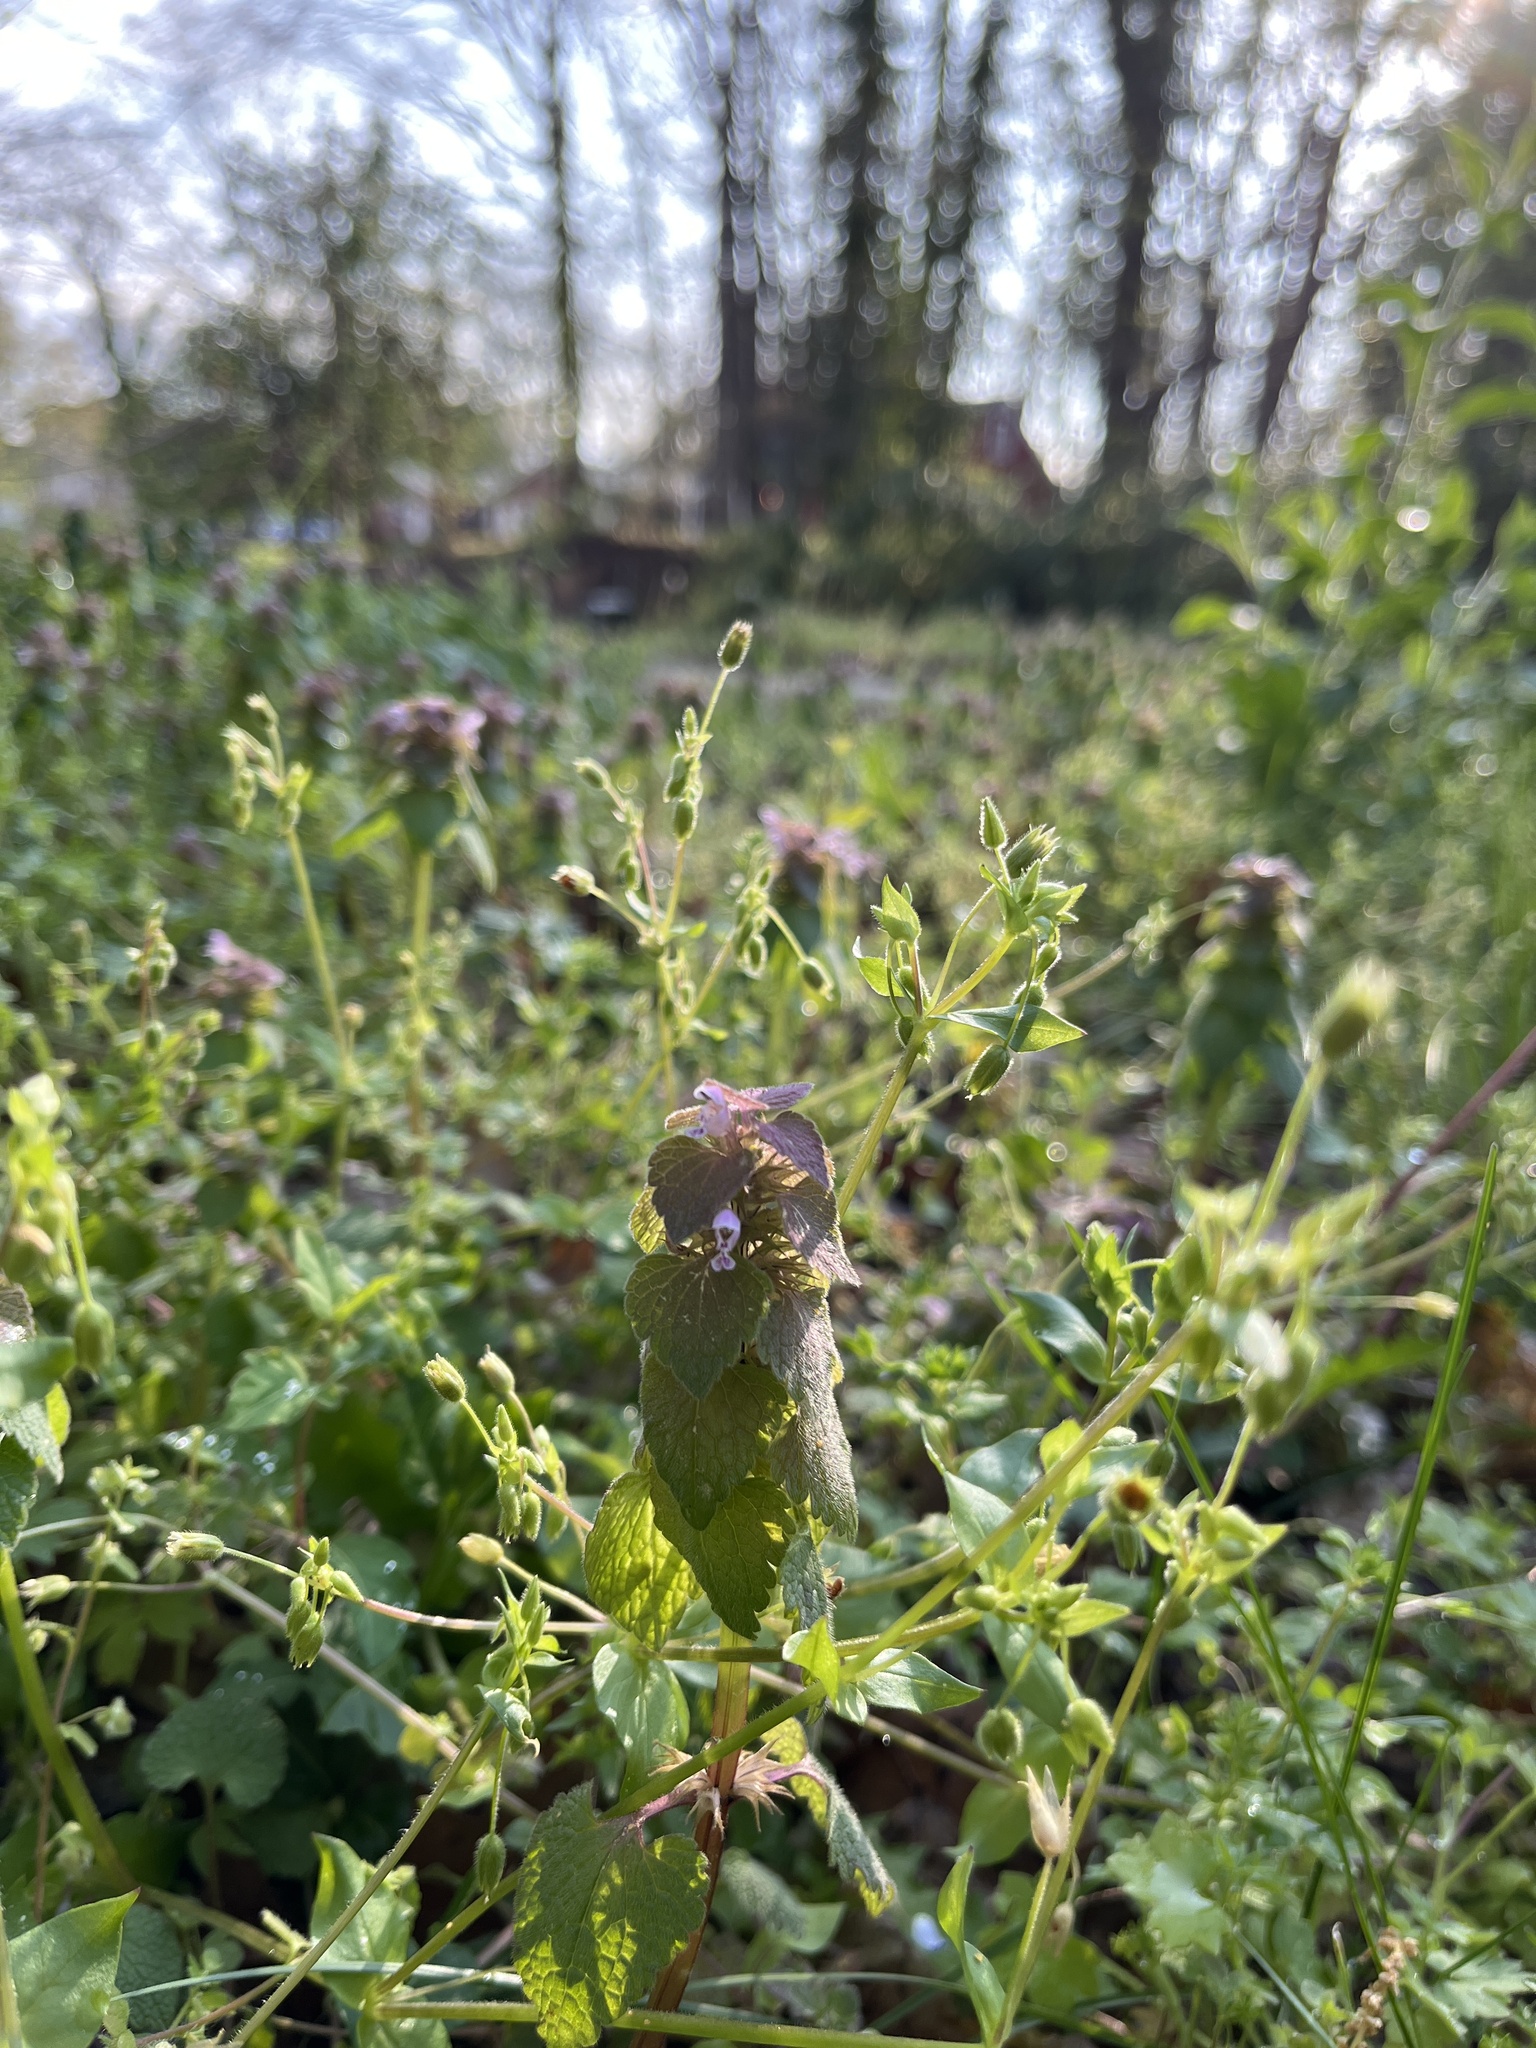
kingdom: Plantae
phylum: Tracheophyta
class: Magnoliopsida
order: Lamiales
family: Lamiaceae
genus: Lamium
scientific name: Lamium purpureum
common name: Red dead-nettle
